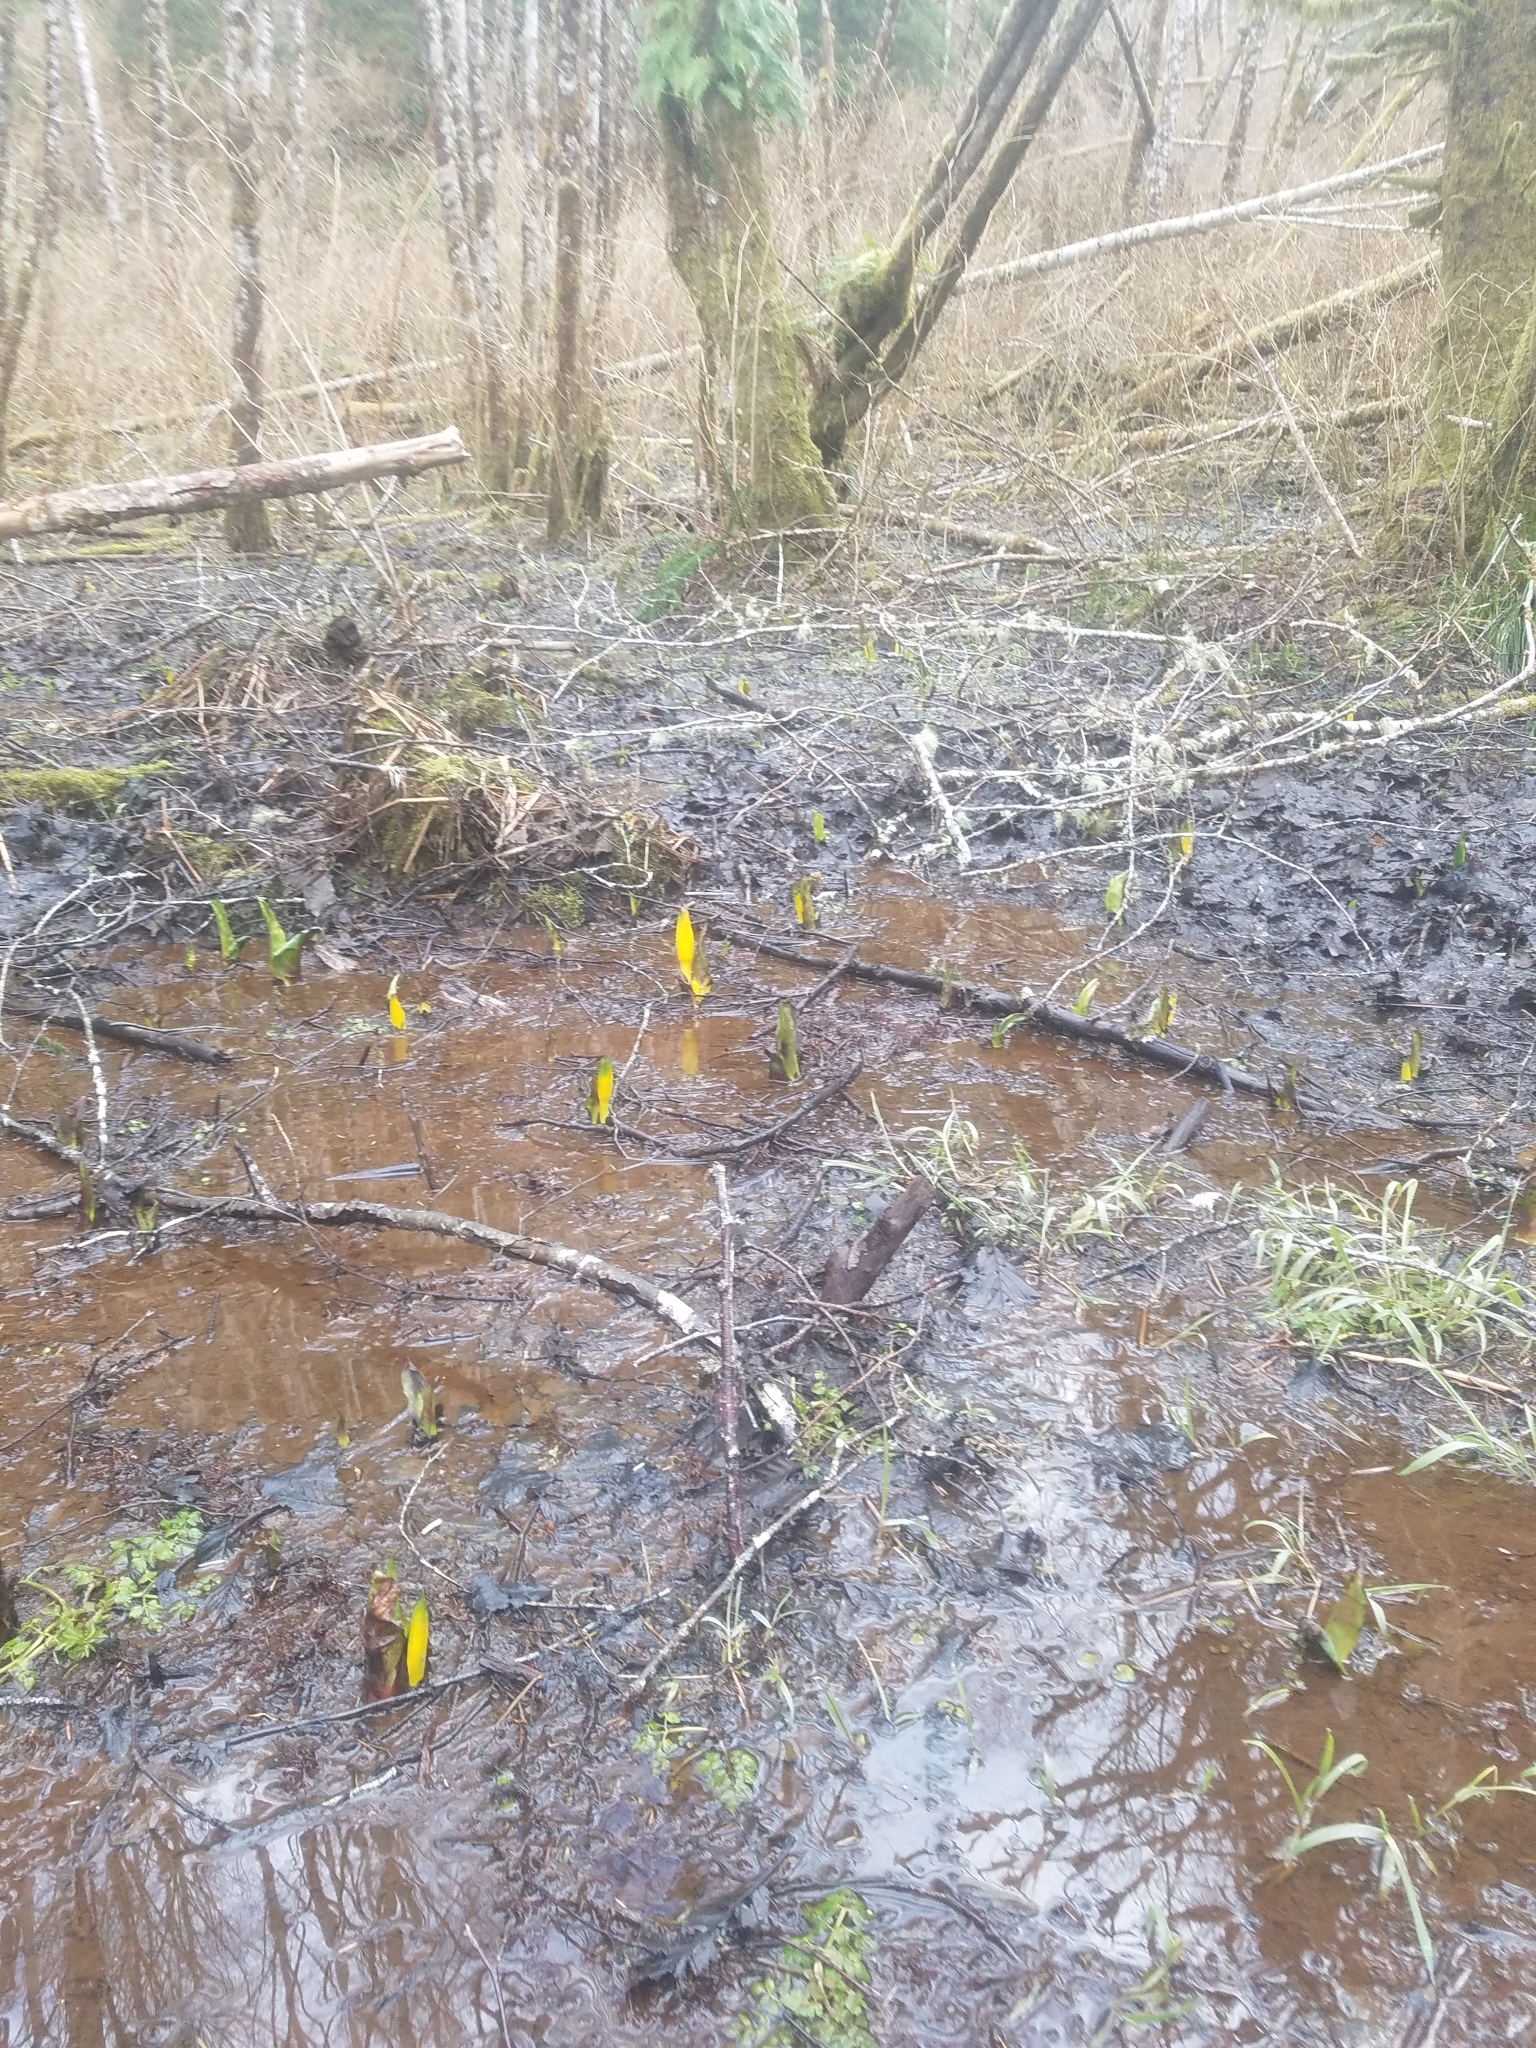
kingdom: Plantae
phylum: Tracheophyta
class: Liliopsida
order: Alismatales
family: Araceae
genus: Lysichiton
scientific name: Lysichiton americanus
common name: American skunk cabbage
